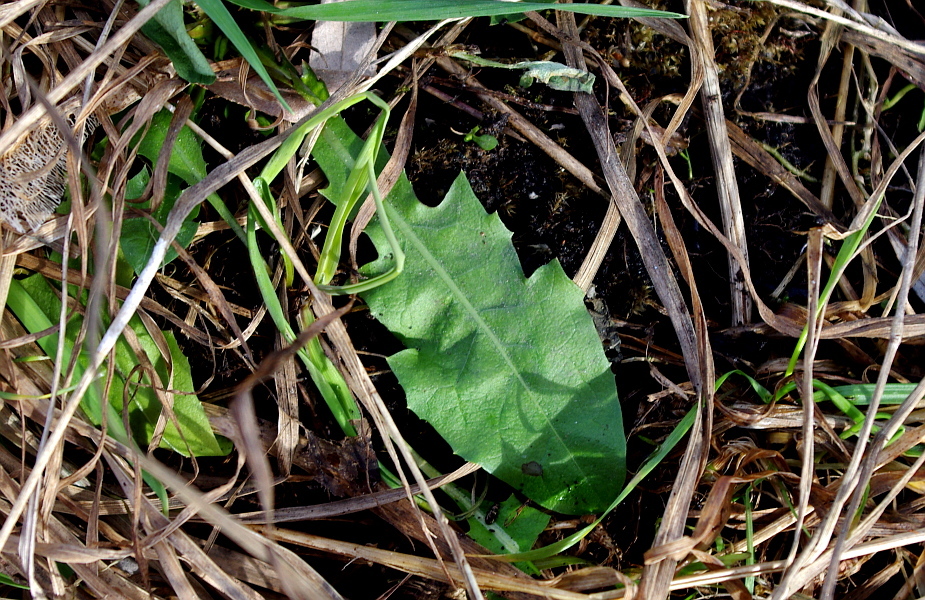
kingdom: Plantae
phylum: Tracheophyta
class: Magnoliopsida
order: Asterales
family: Asteraceae
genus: Taraxacum
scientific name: Taraxacum officinale
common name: Common dandelion
